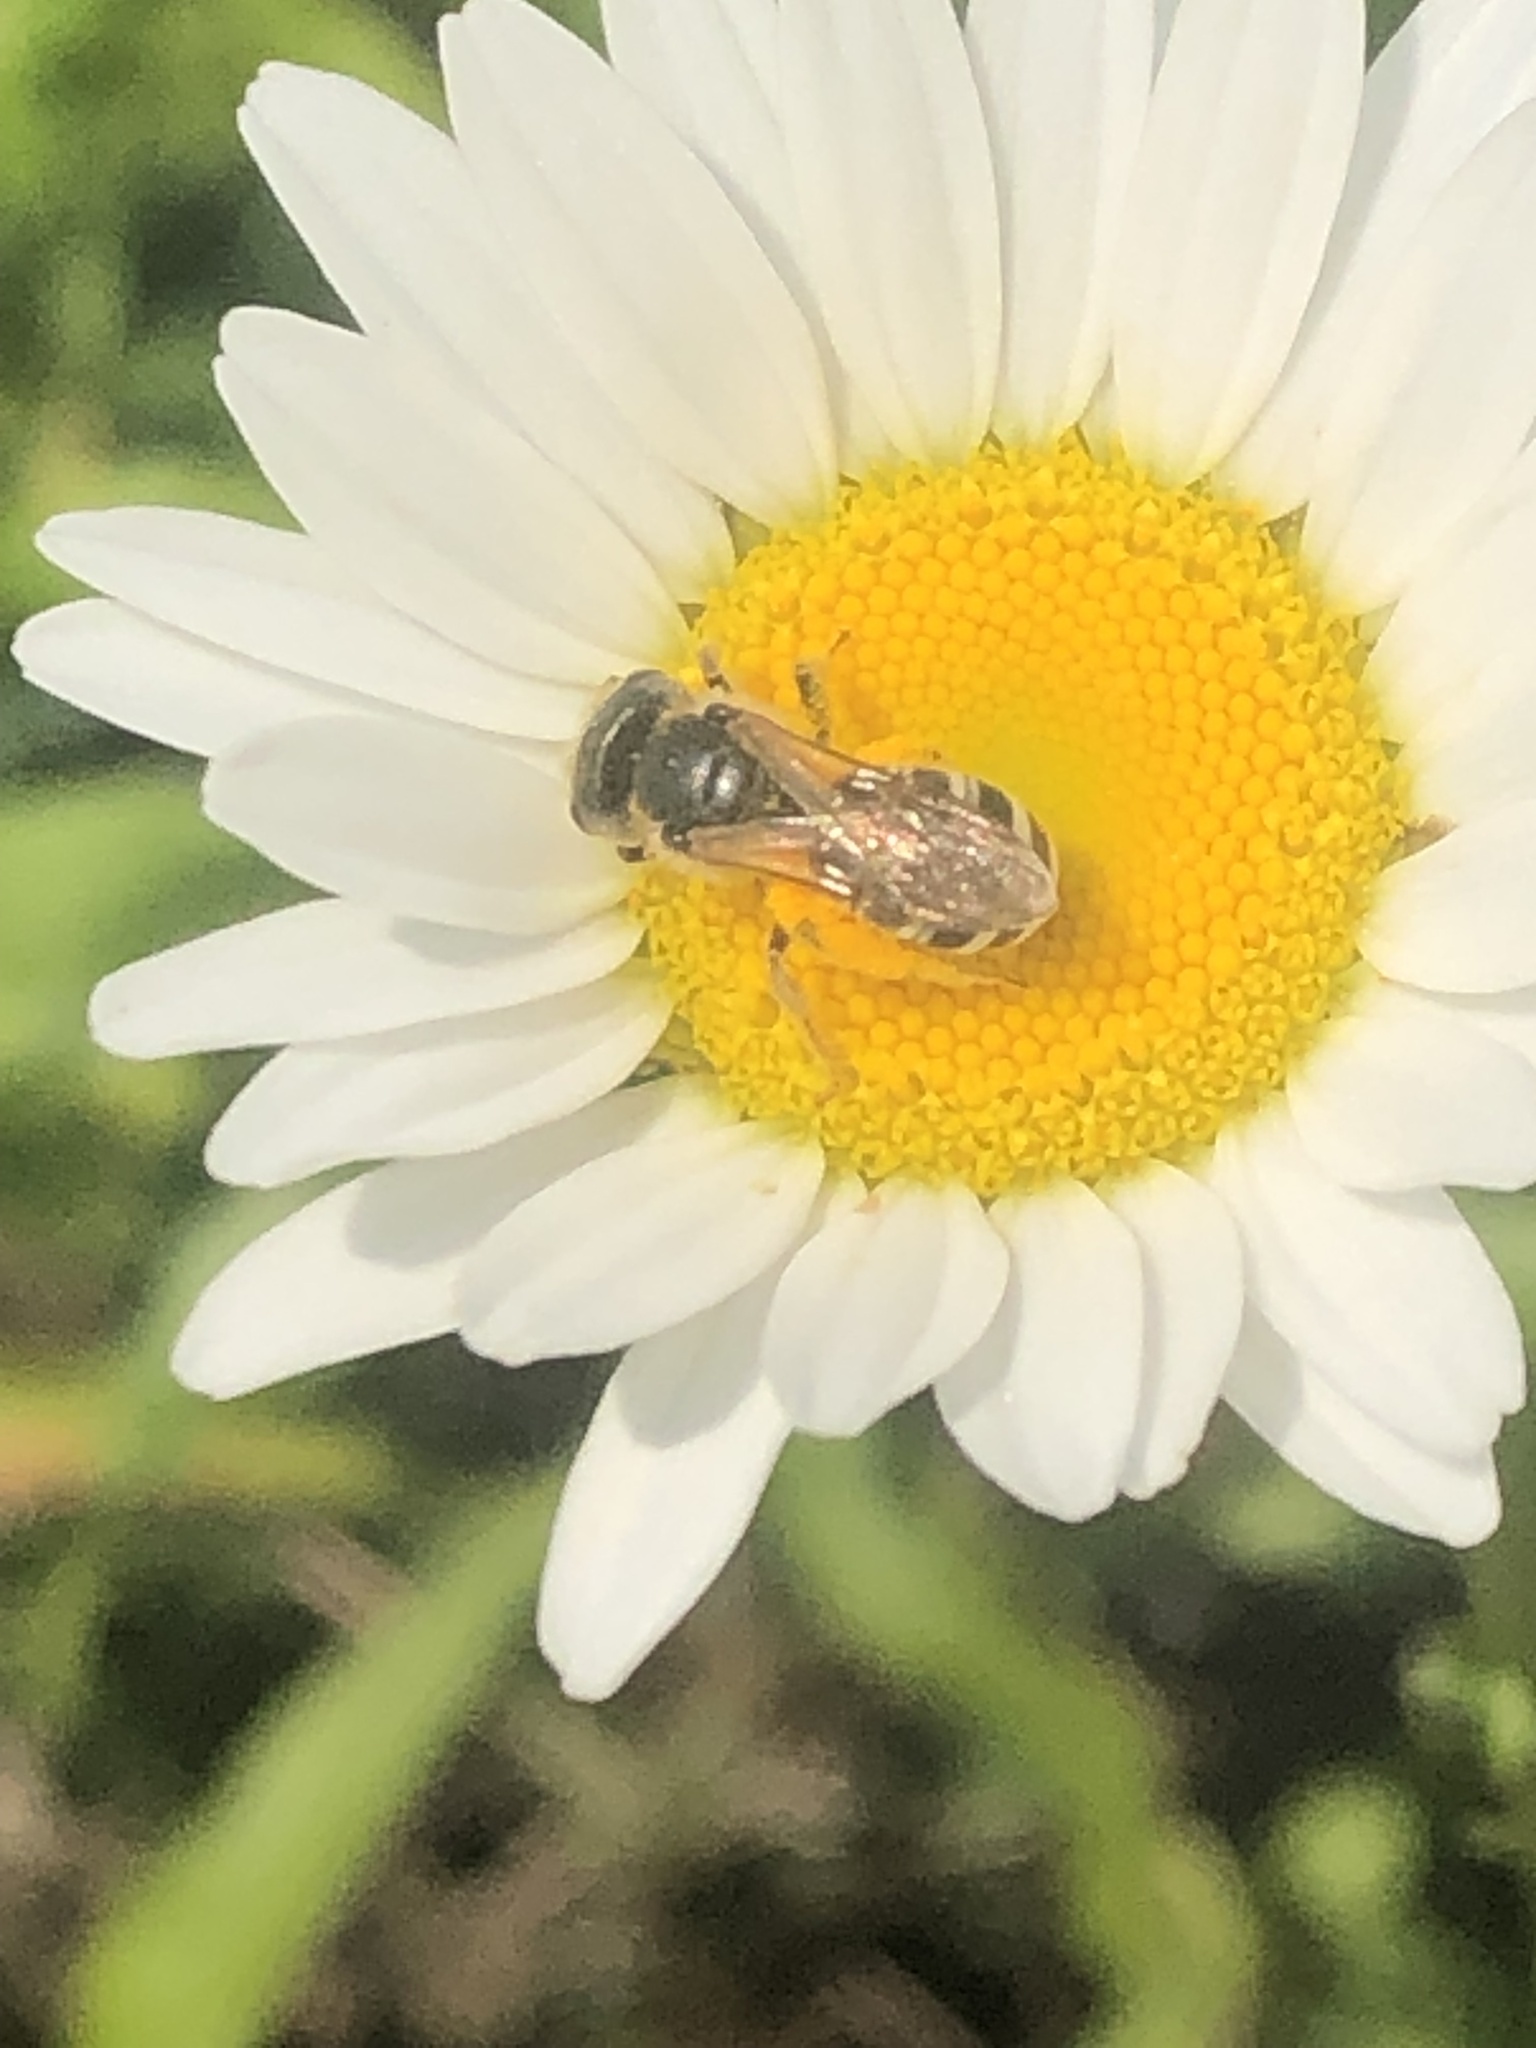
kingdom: Animalia
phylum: Arthropoda
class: Insecta
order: Hymenoptera
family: Halictidae
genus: Halictus
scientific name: Halictus ligatus
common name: Ligated furrow bee
